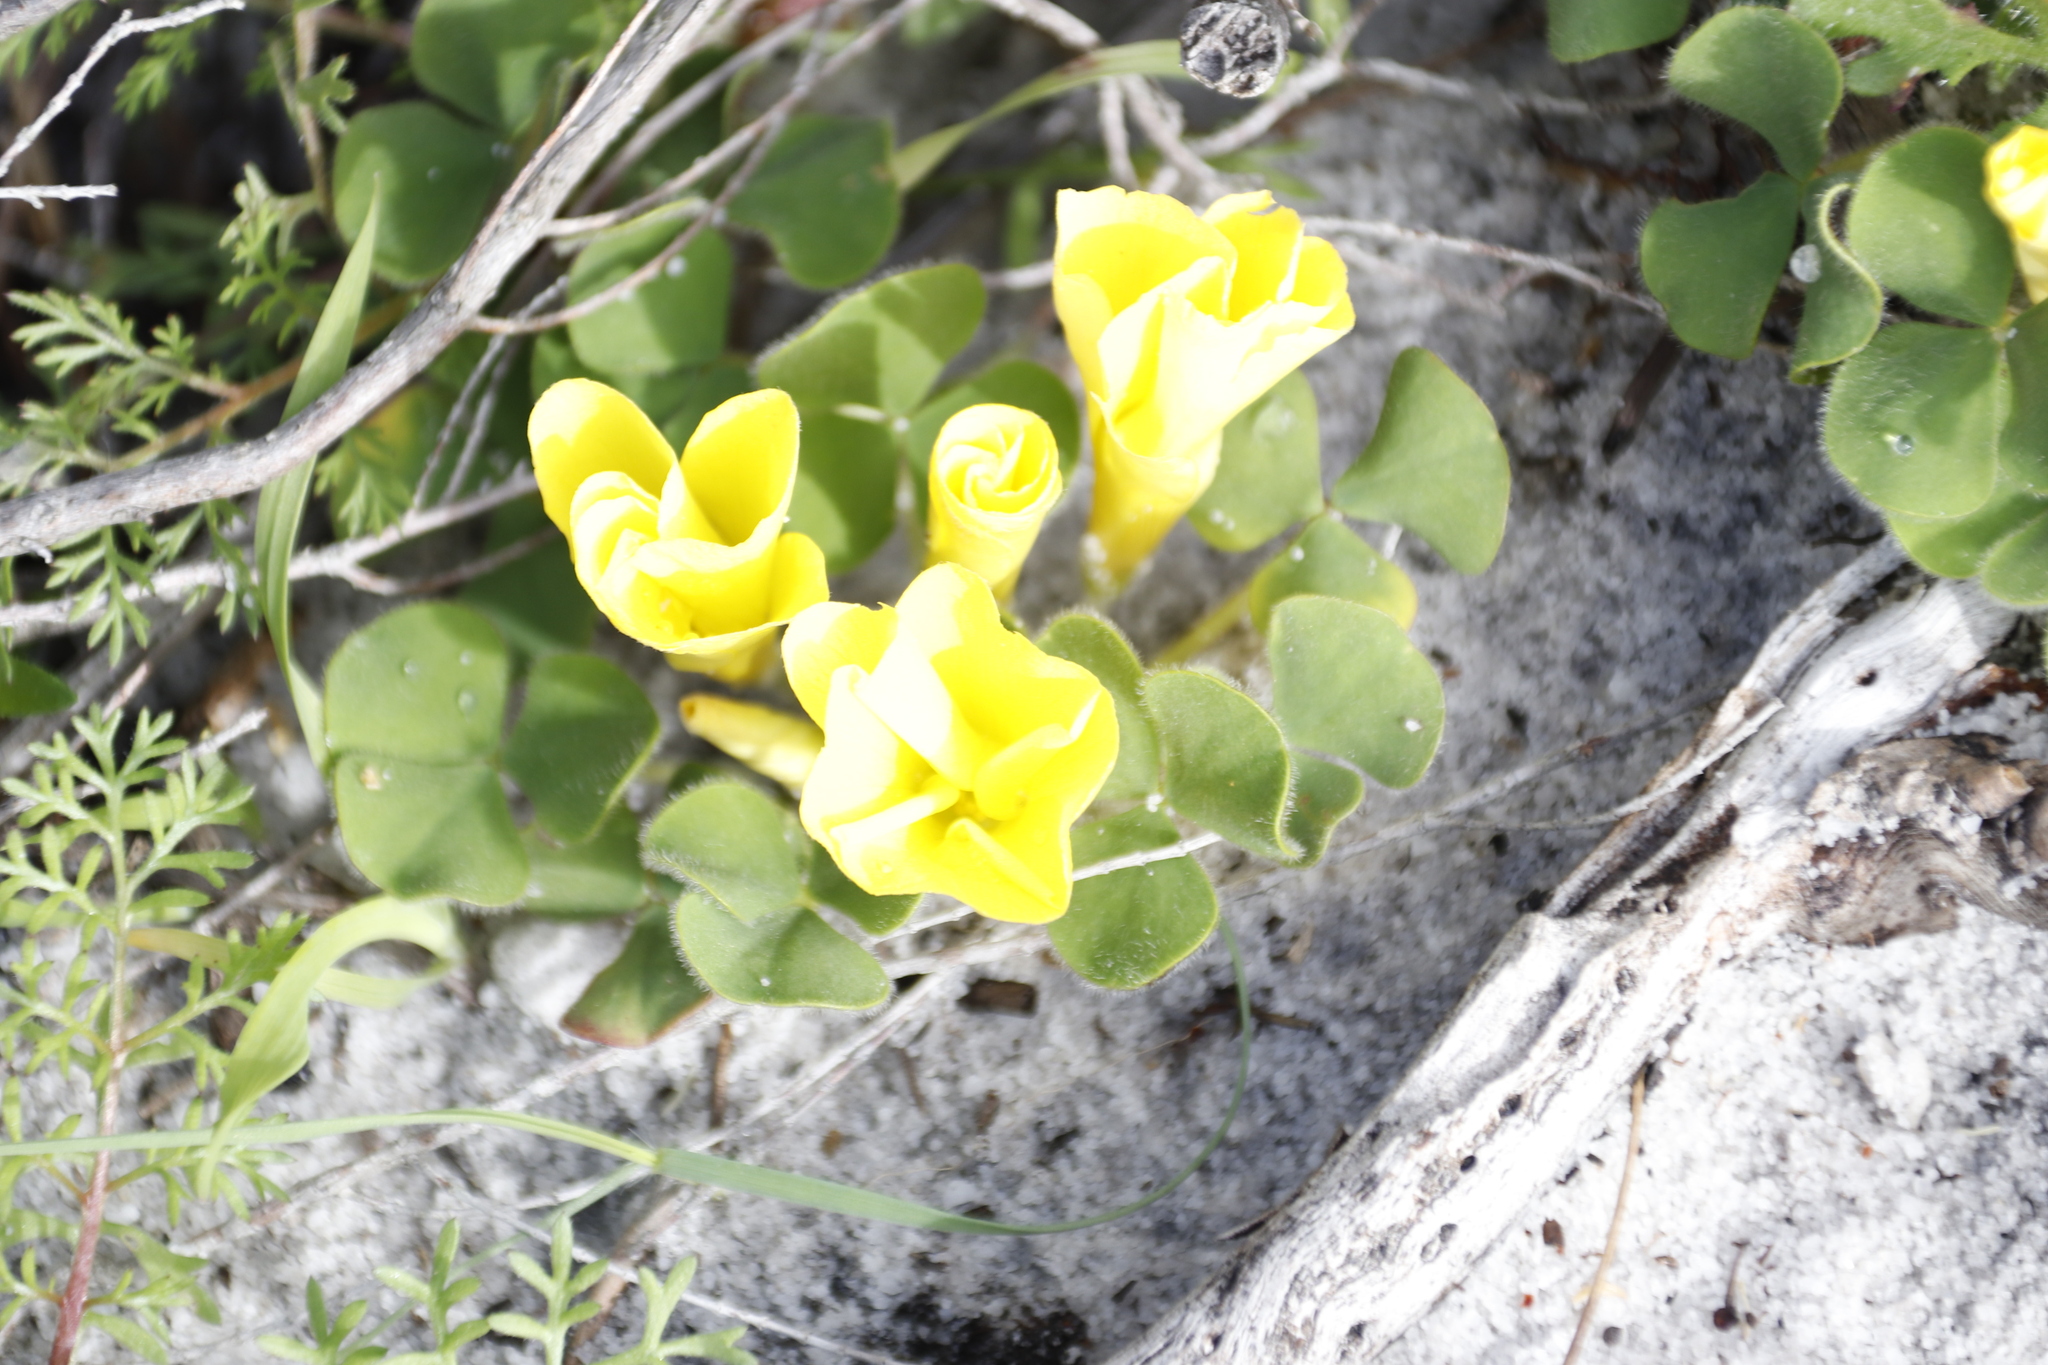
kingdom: Plantae
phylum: Tracheophyta
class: Magnoliopsida
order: Oxalidales
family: Oxalidaceae
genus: Oxalis
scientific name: Oxalis luteola
